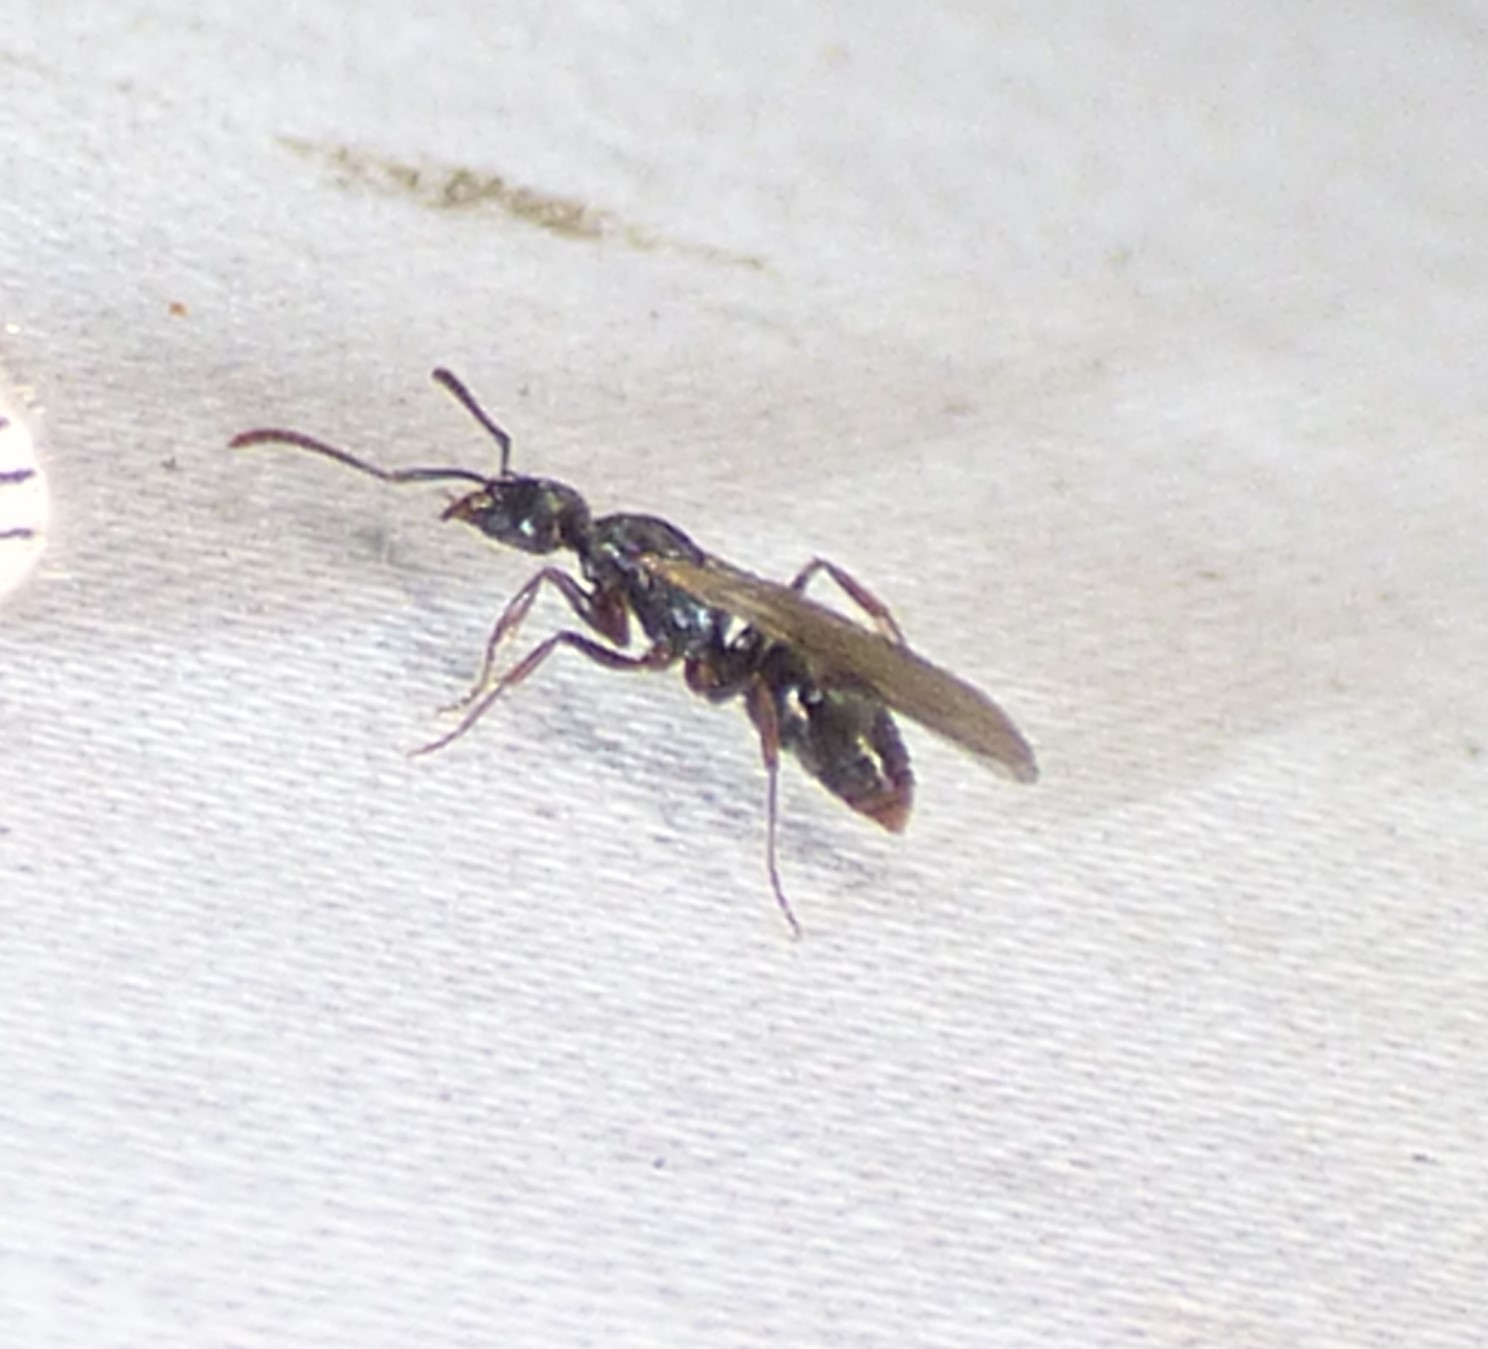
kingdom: Animalia
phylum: Arthropoda
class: Insecta
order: Hymenoptera
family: Formicidae
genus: Pachycondyla
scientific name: Pachycondyla chinensis
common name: Asian needle ant
